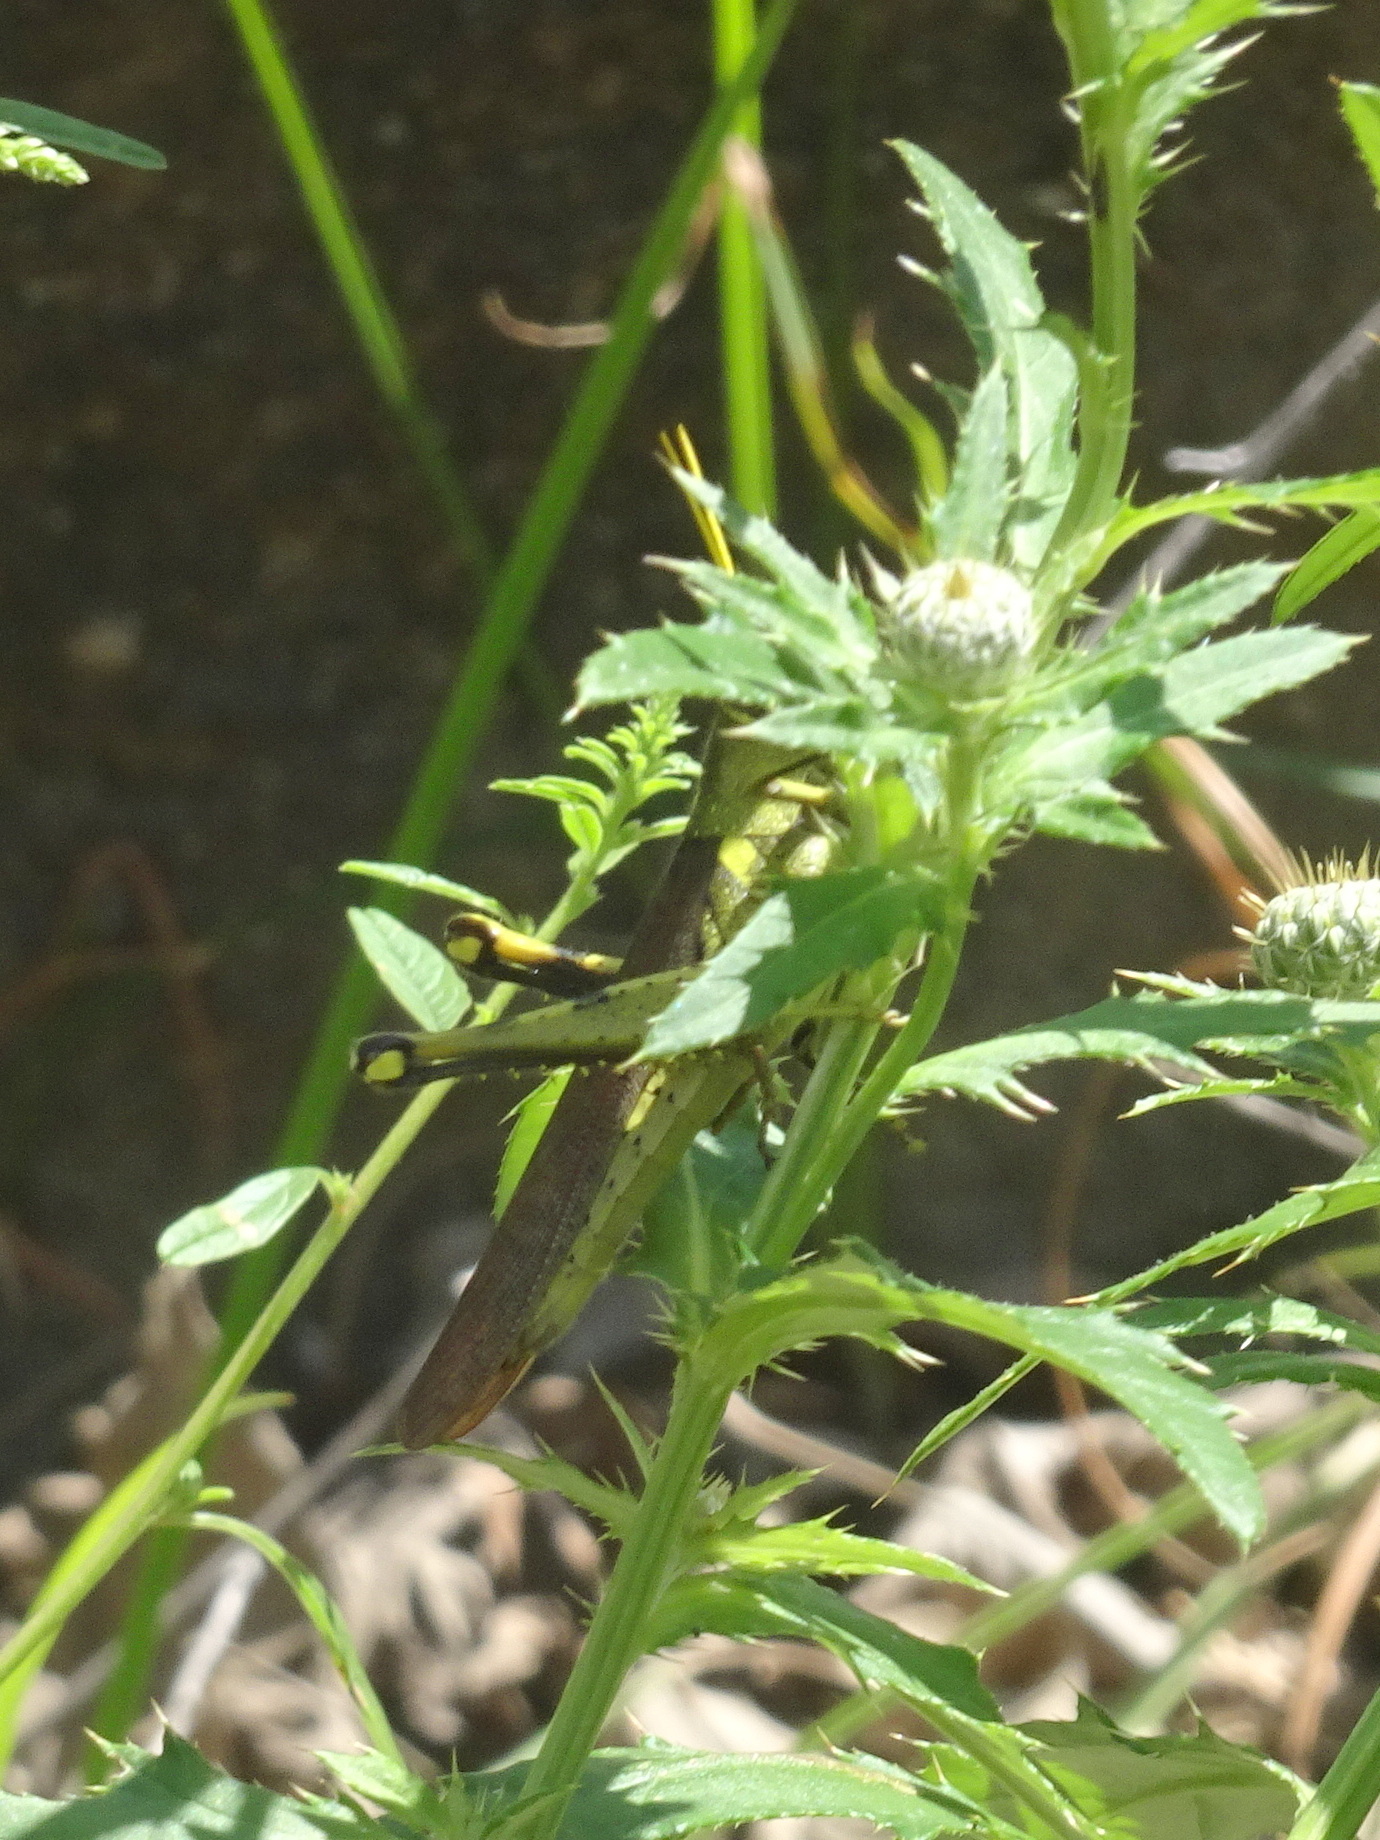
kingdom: Animalia
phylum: Arthropoda
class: Insecta
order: Orthoptera
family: Acrididae
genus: Schistocerca
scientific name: Schistocerca obscura
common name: Obscure bird grasshopper
